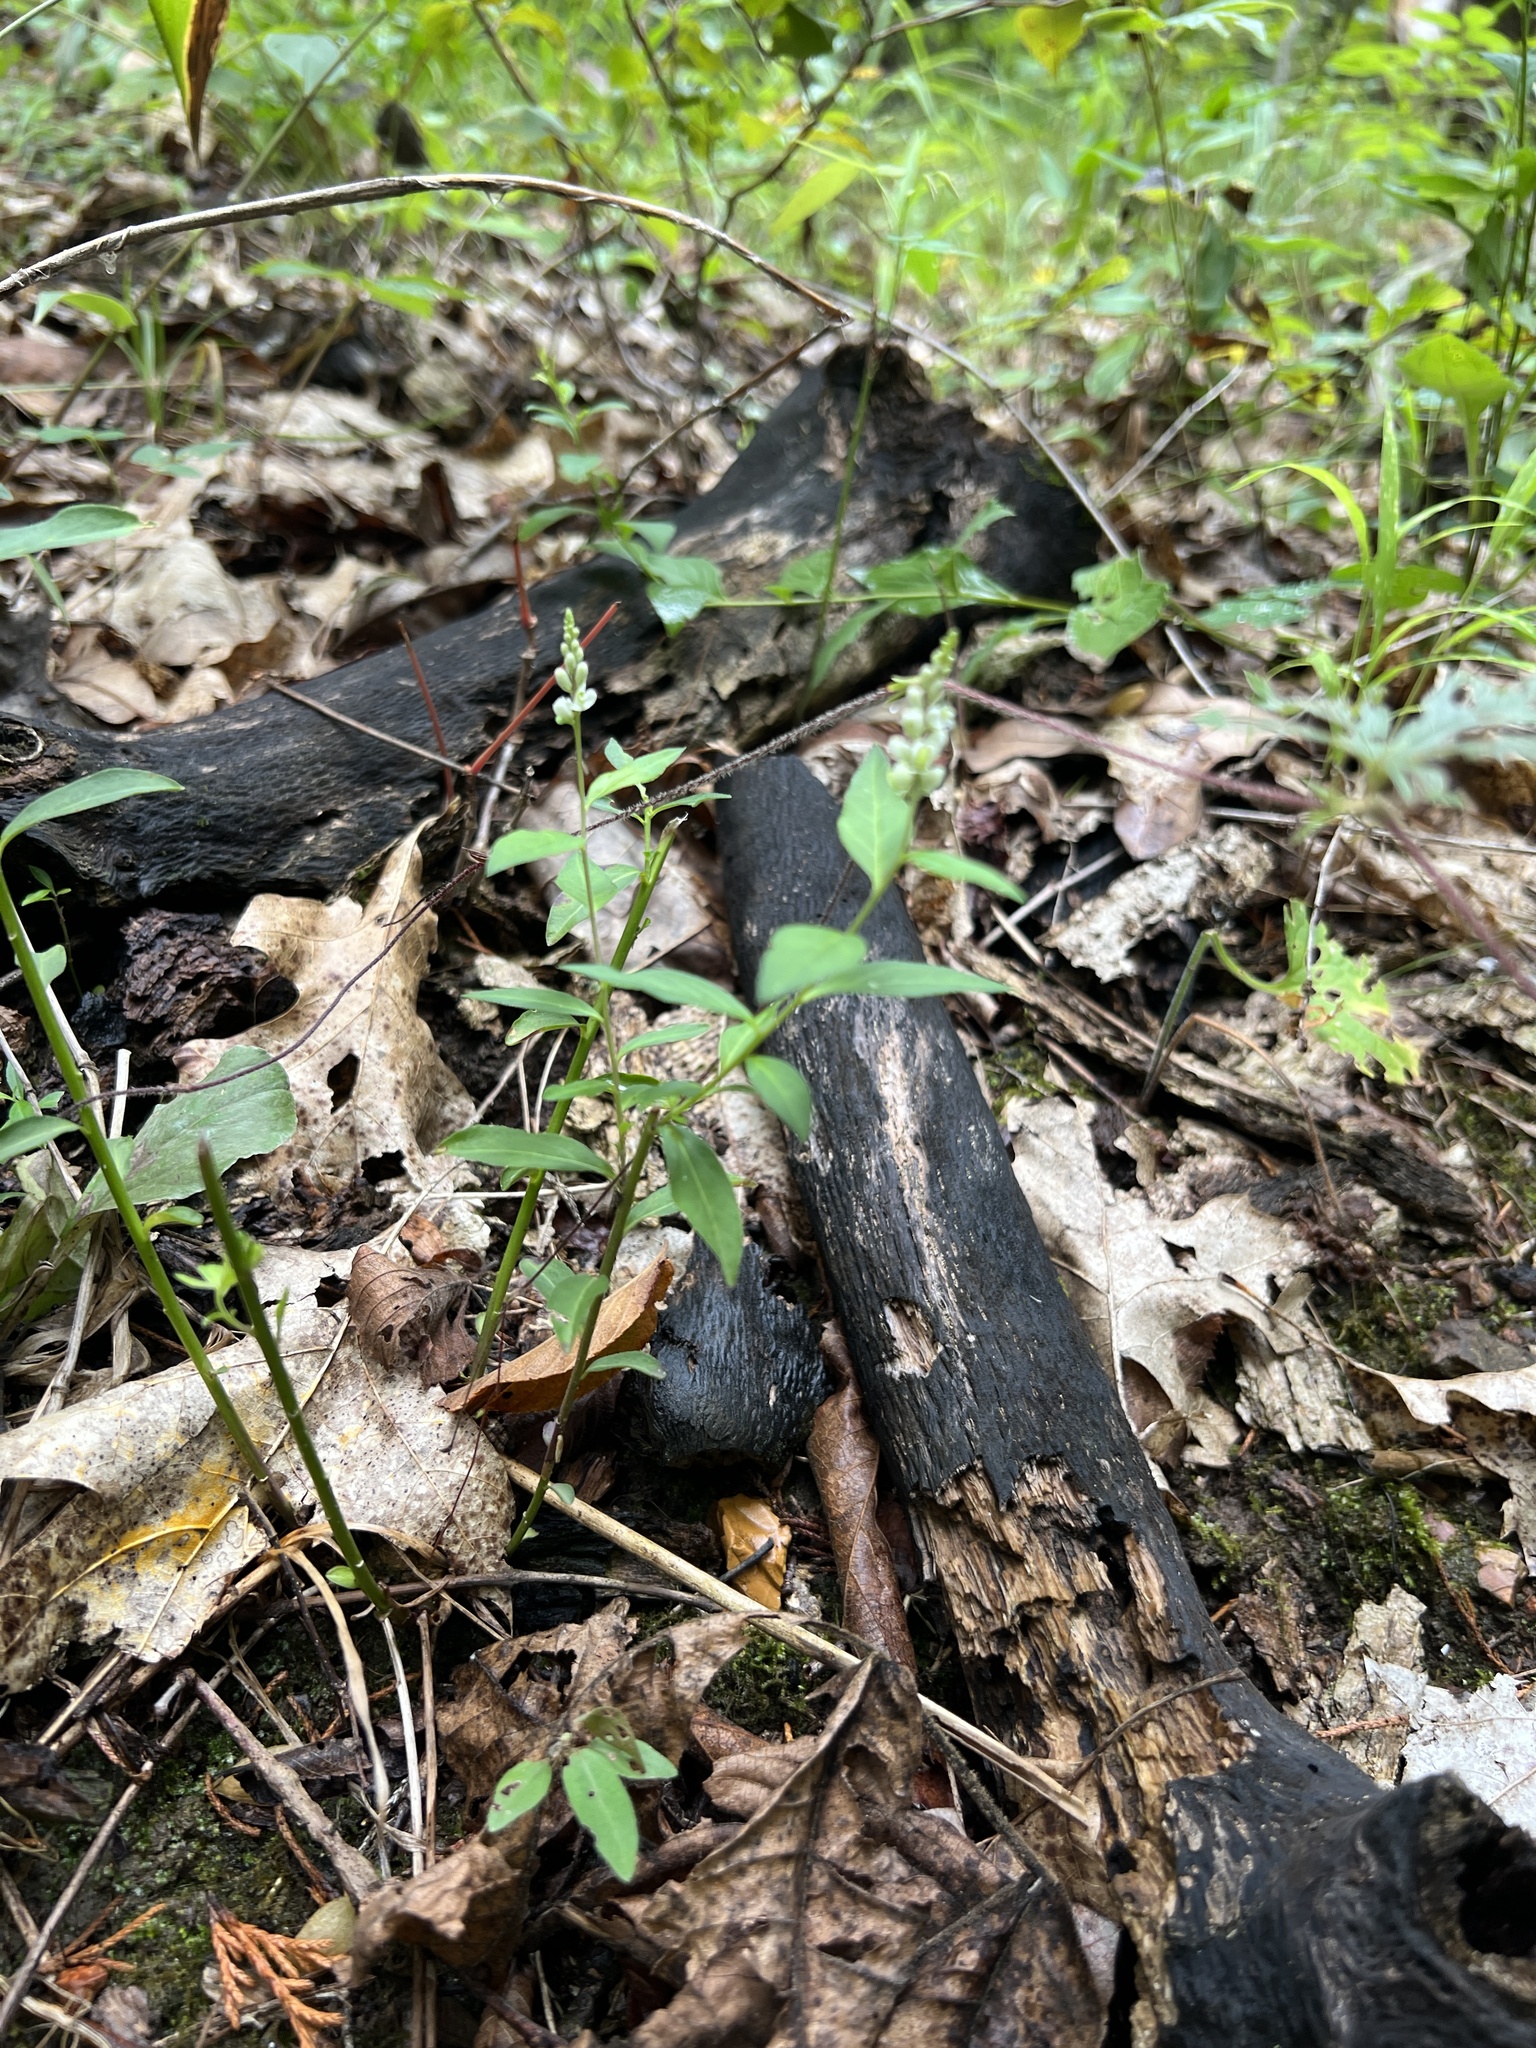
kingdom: Plantae
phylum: Tracheophyta
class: Magnoliopsida
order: Fabales
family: Polygalaceae
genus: Polygala
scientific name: Polygala senega
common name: Seneca snakeroot
